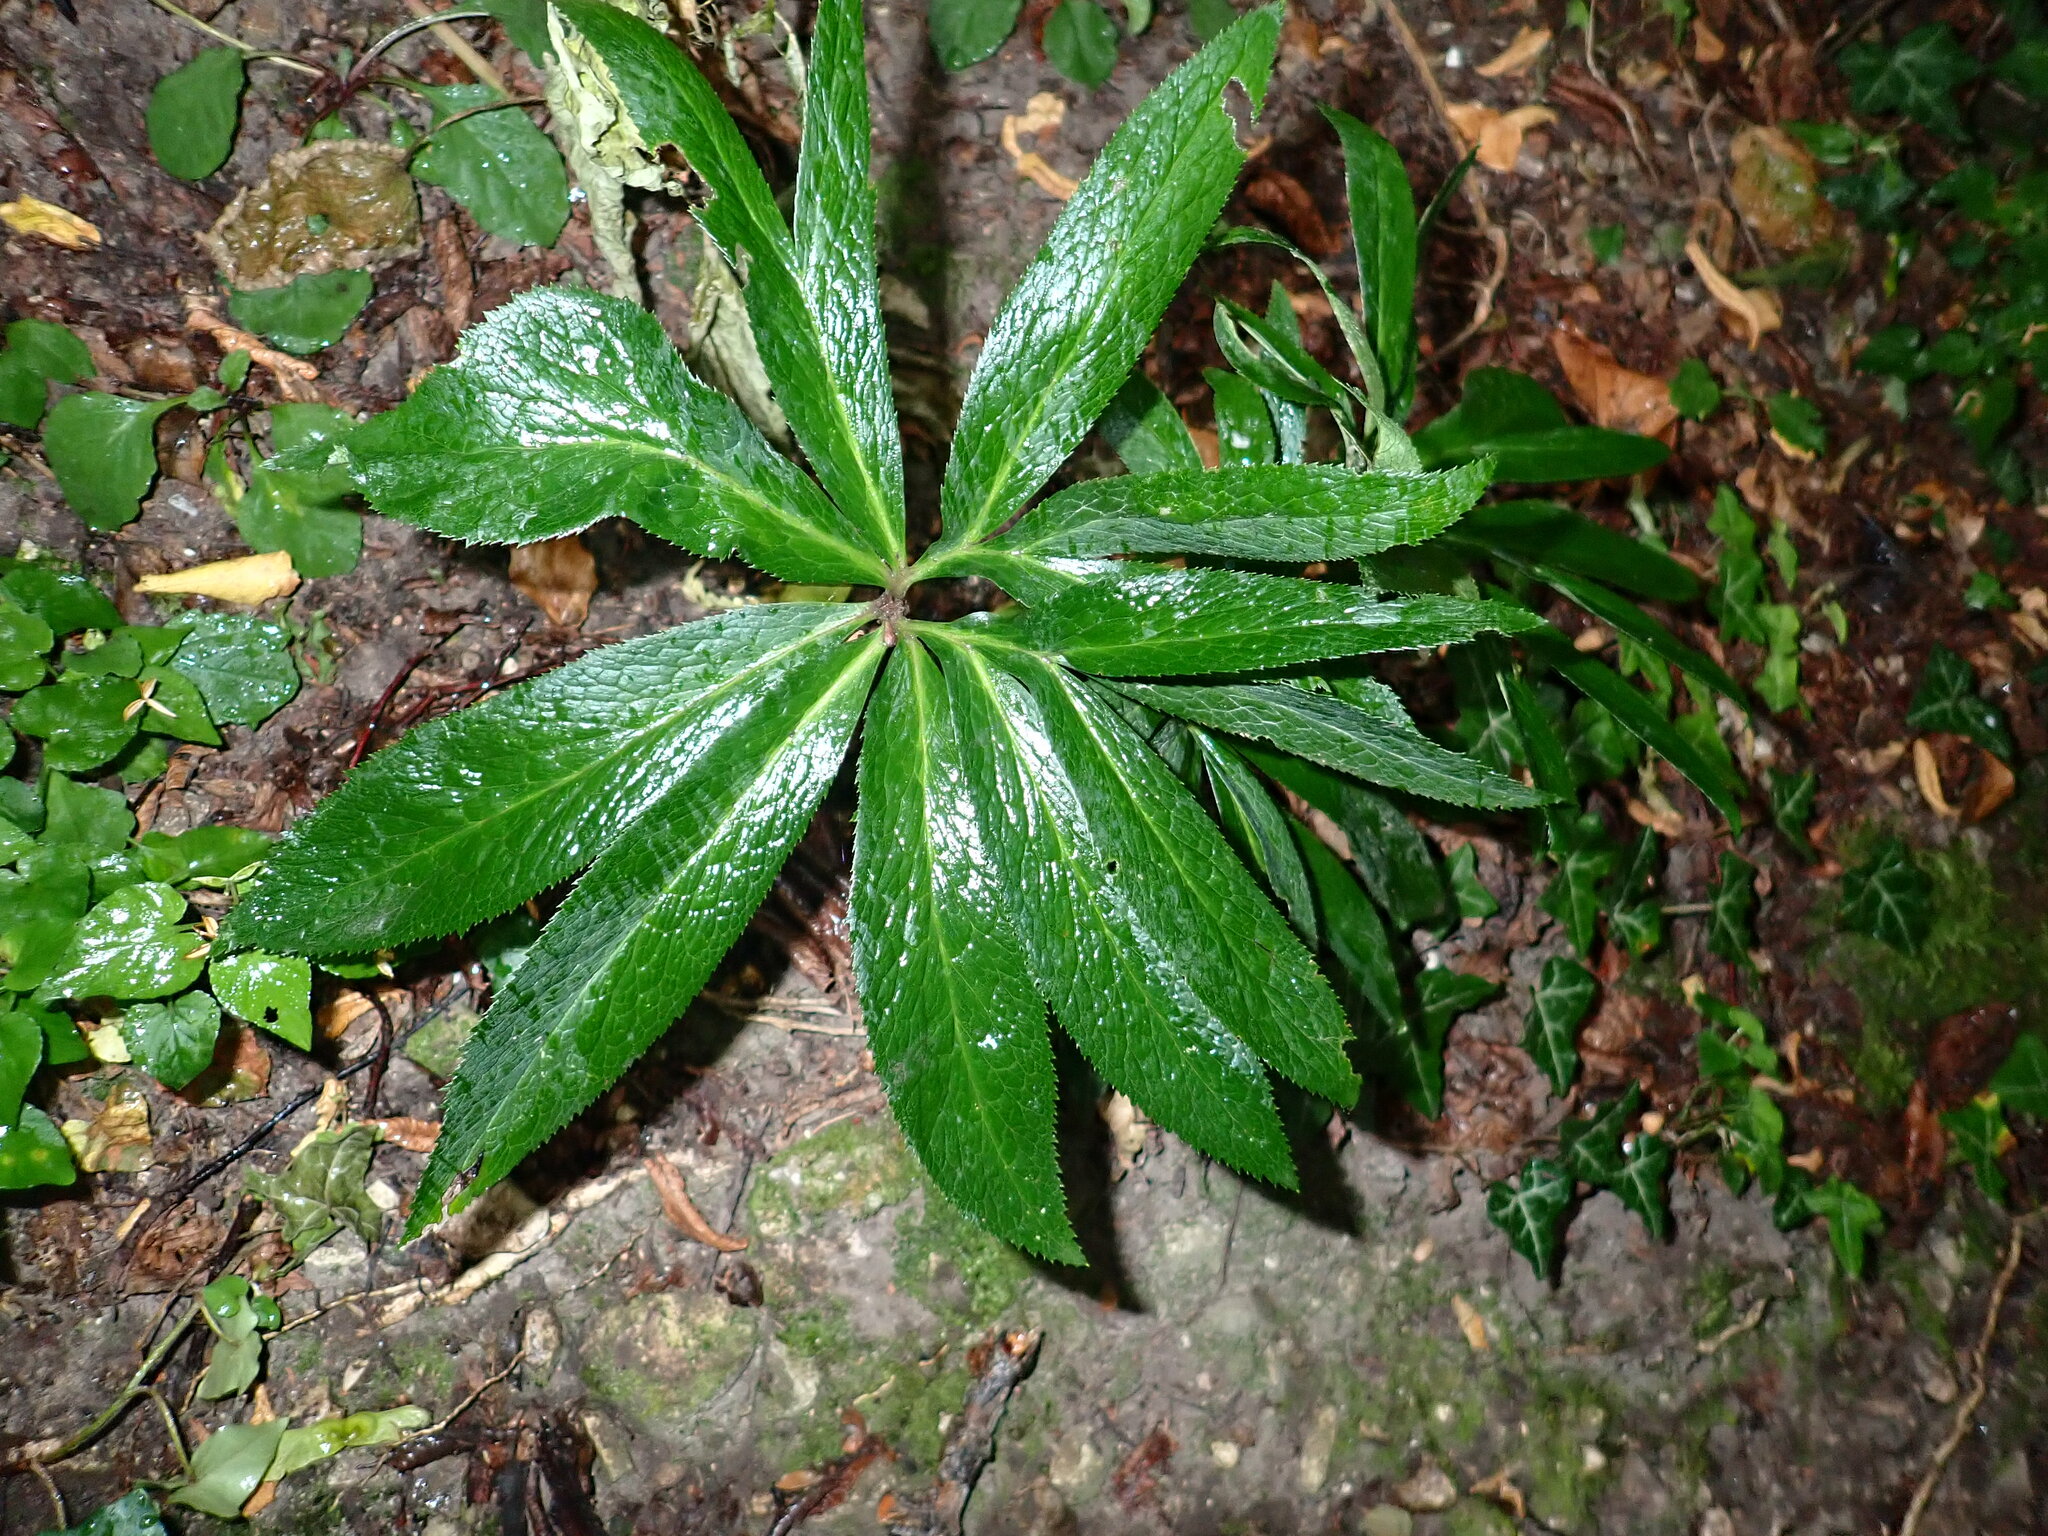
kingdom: Plantae
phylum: Tracheophyta
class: Magnoliopsida
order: Ranunculales
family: Ranunculaceae
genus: Helleborus
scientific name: Helleborus viridis
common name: Green hellebore
